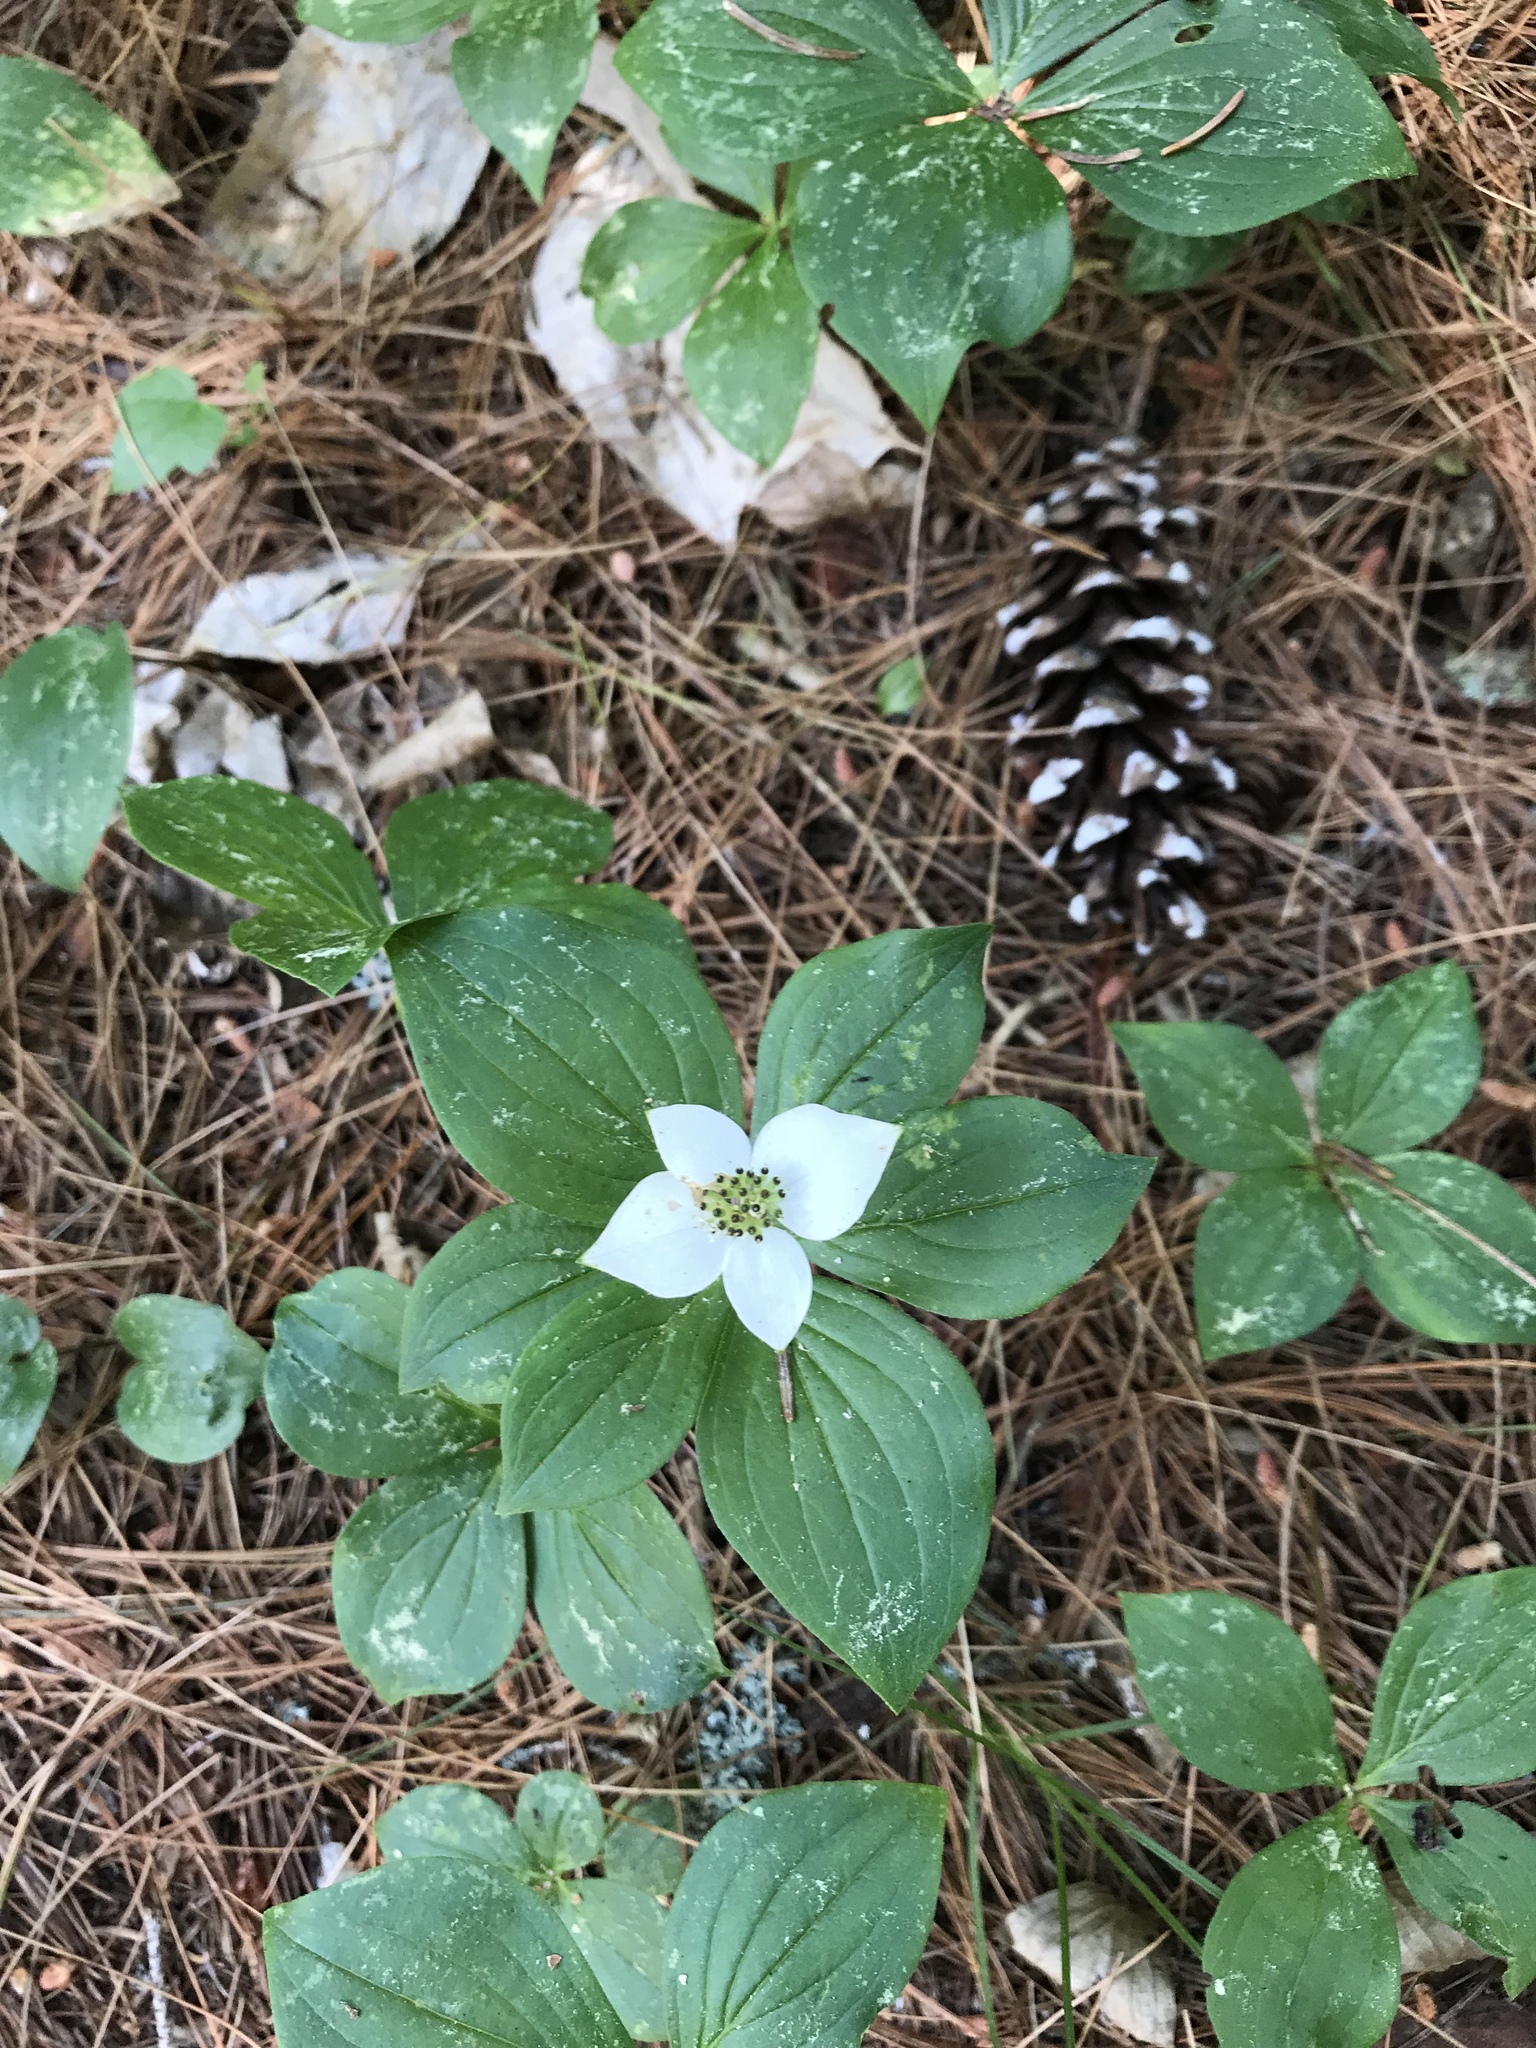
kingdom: Plantae
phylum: Tracheophyta
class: Magnoliopsida
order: Cornales
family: Cornaceae
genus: Cornus
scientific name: Cornus canadensis
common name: Creeping dogwood
